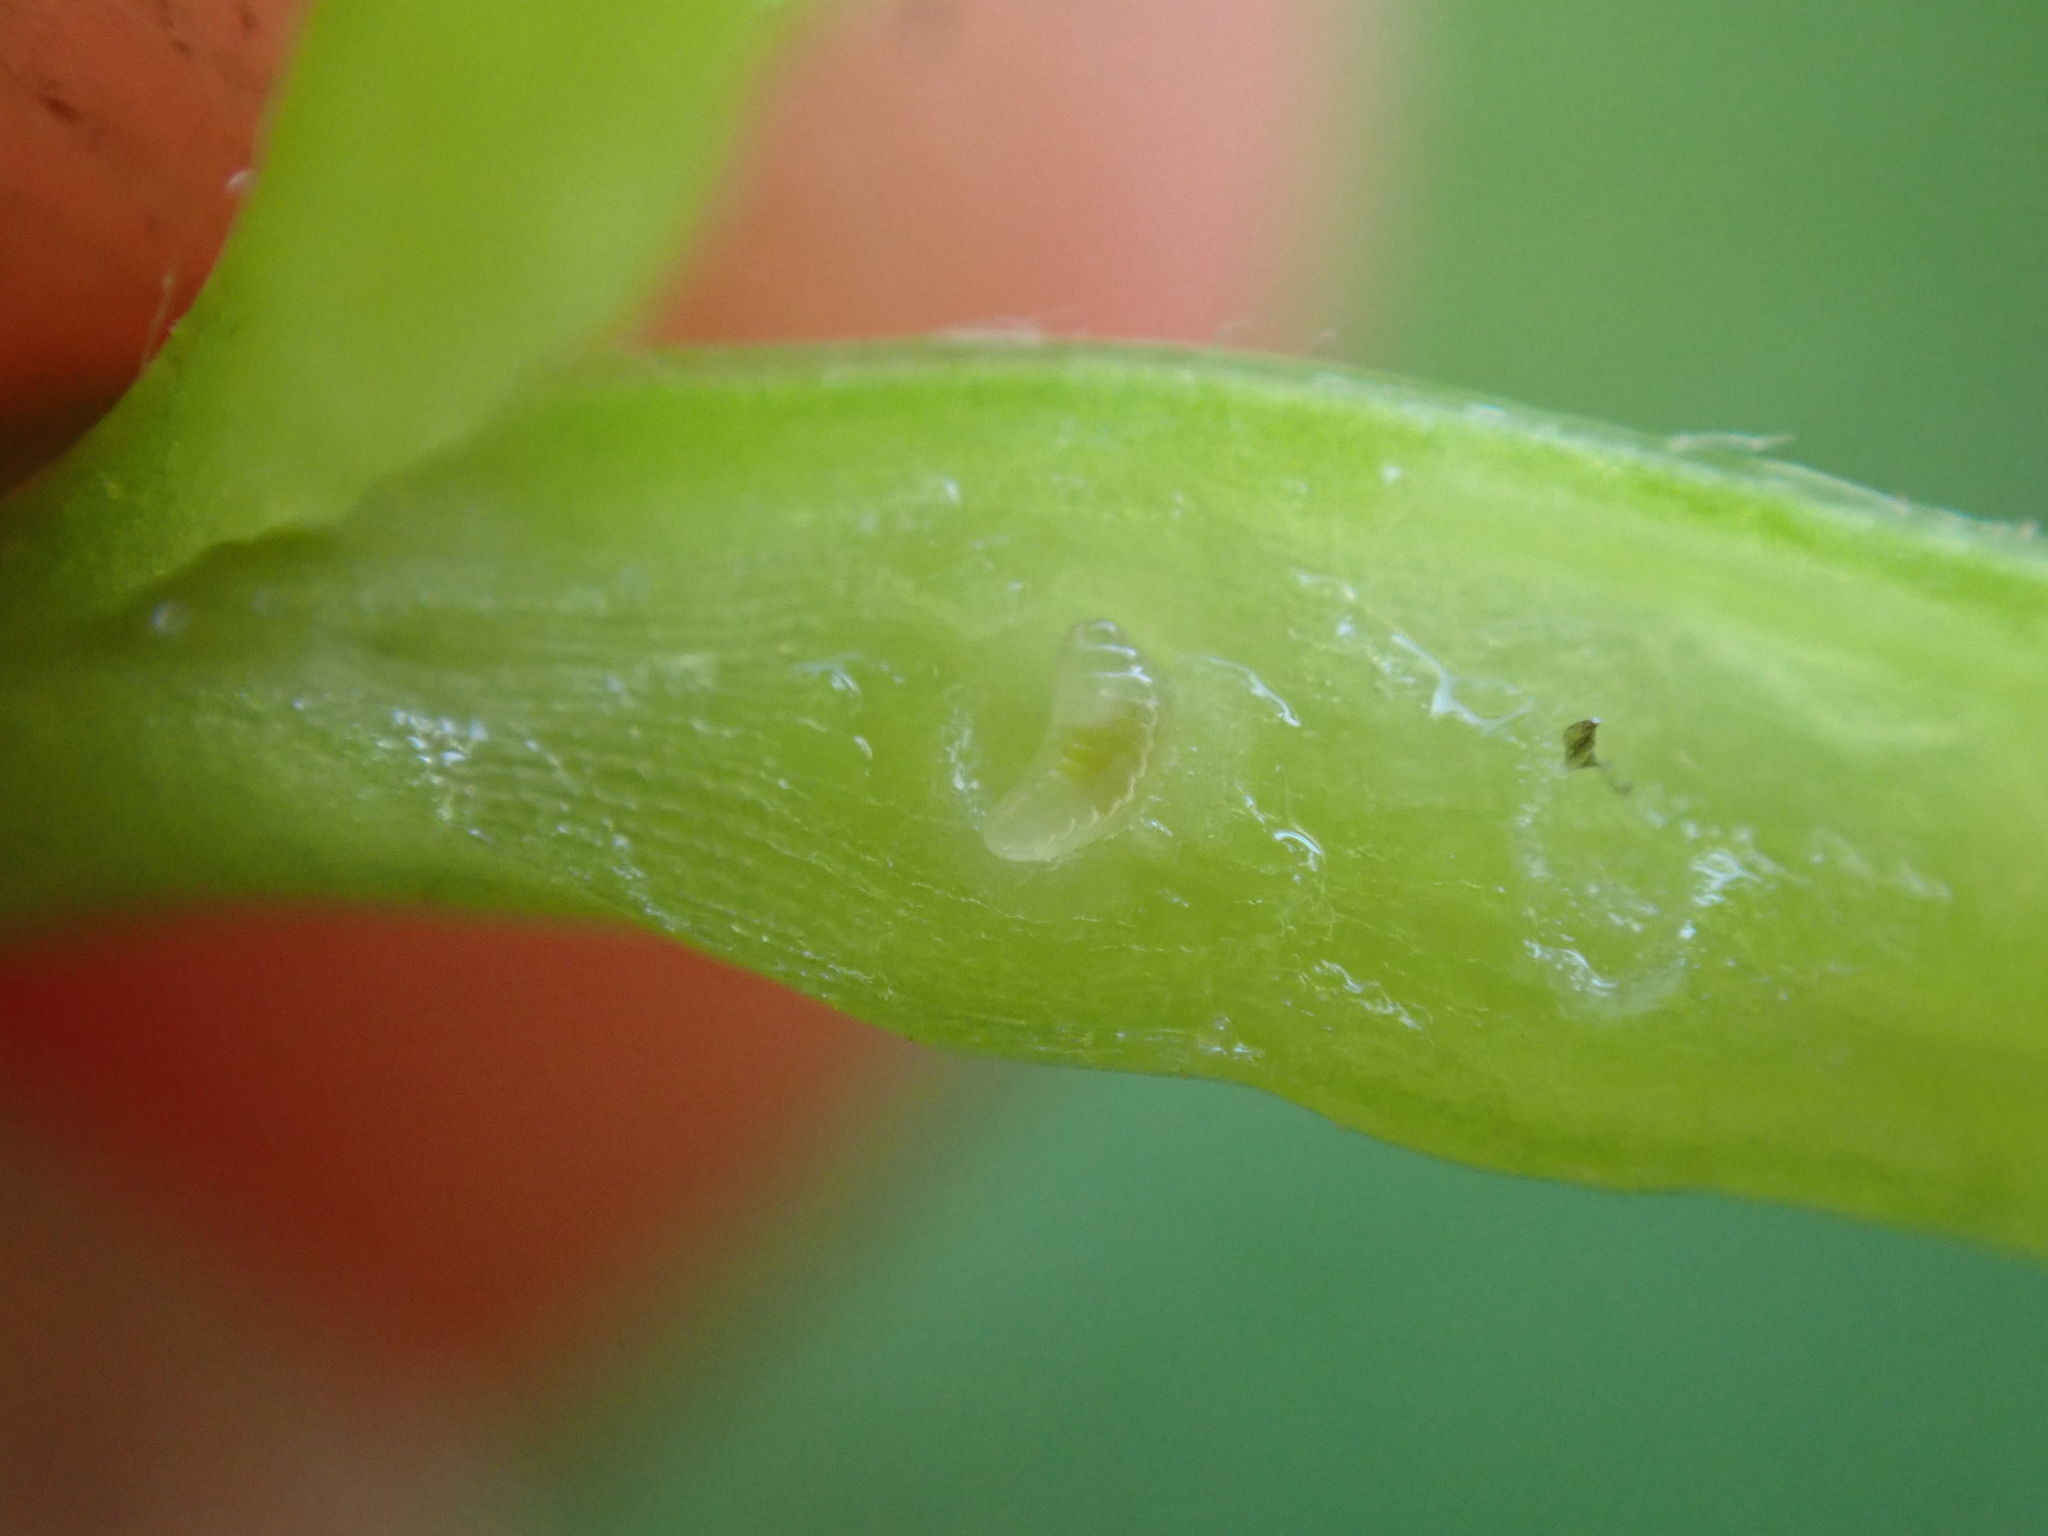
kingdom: Animalia
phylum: Arthropoda
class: Insecta
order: Hymenoptera
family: Cynipidae
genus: Xestophanes
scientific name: Xestophanes potentillae
